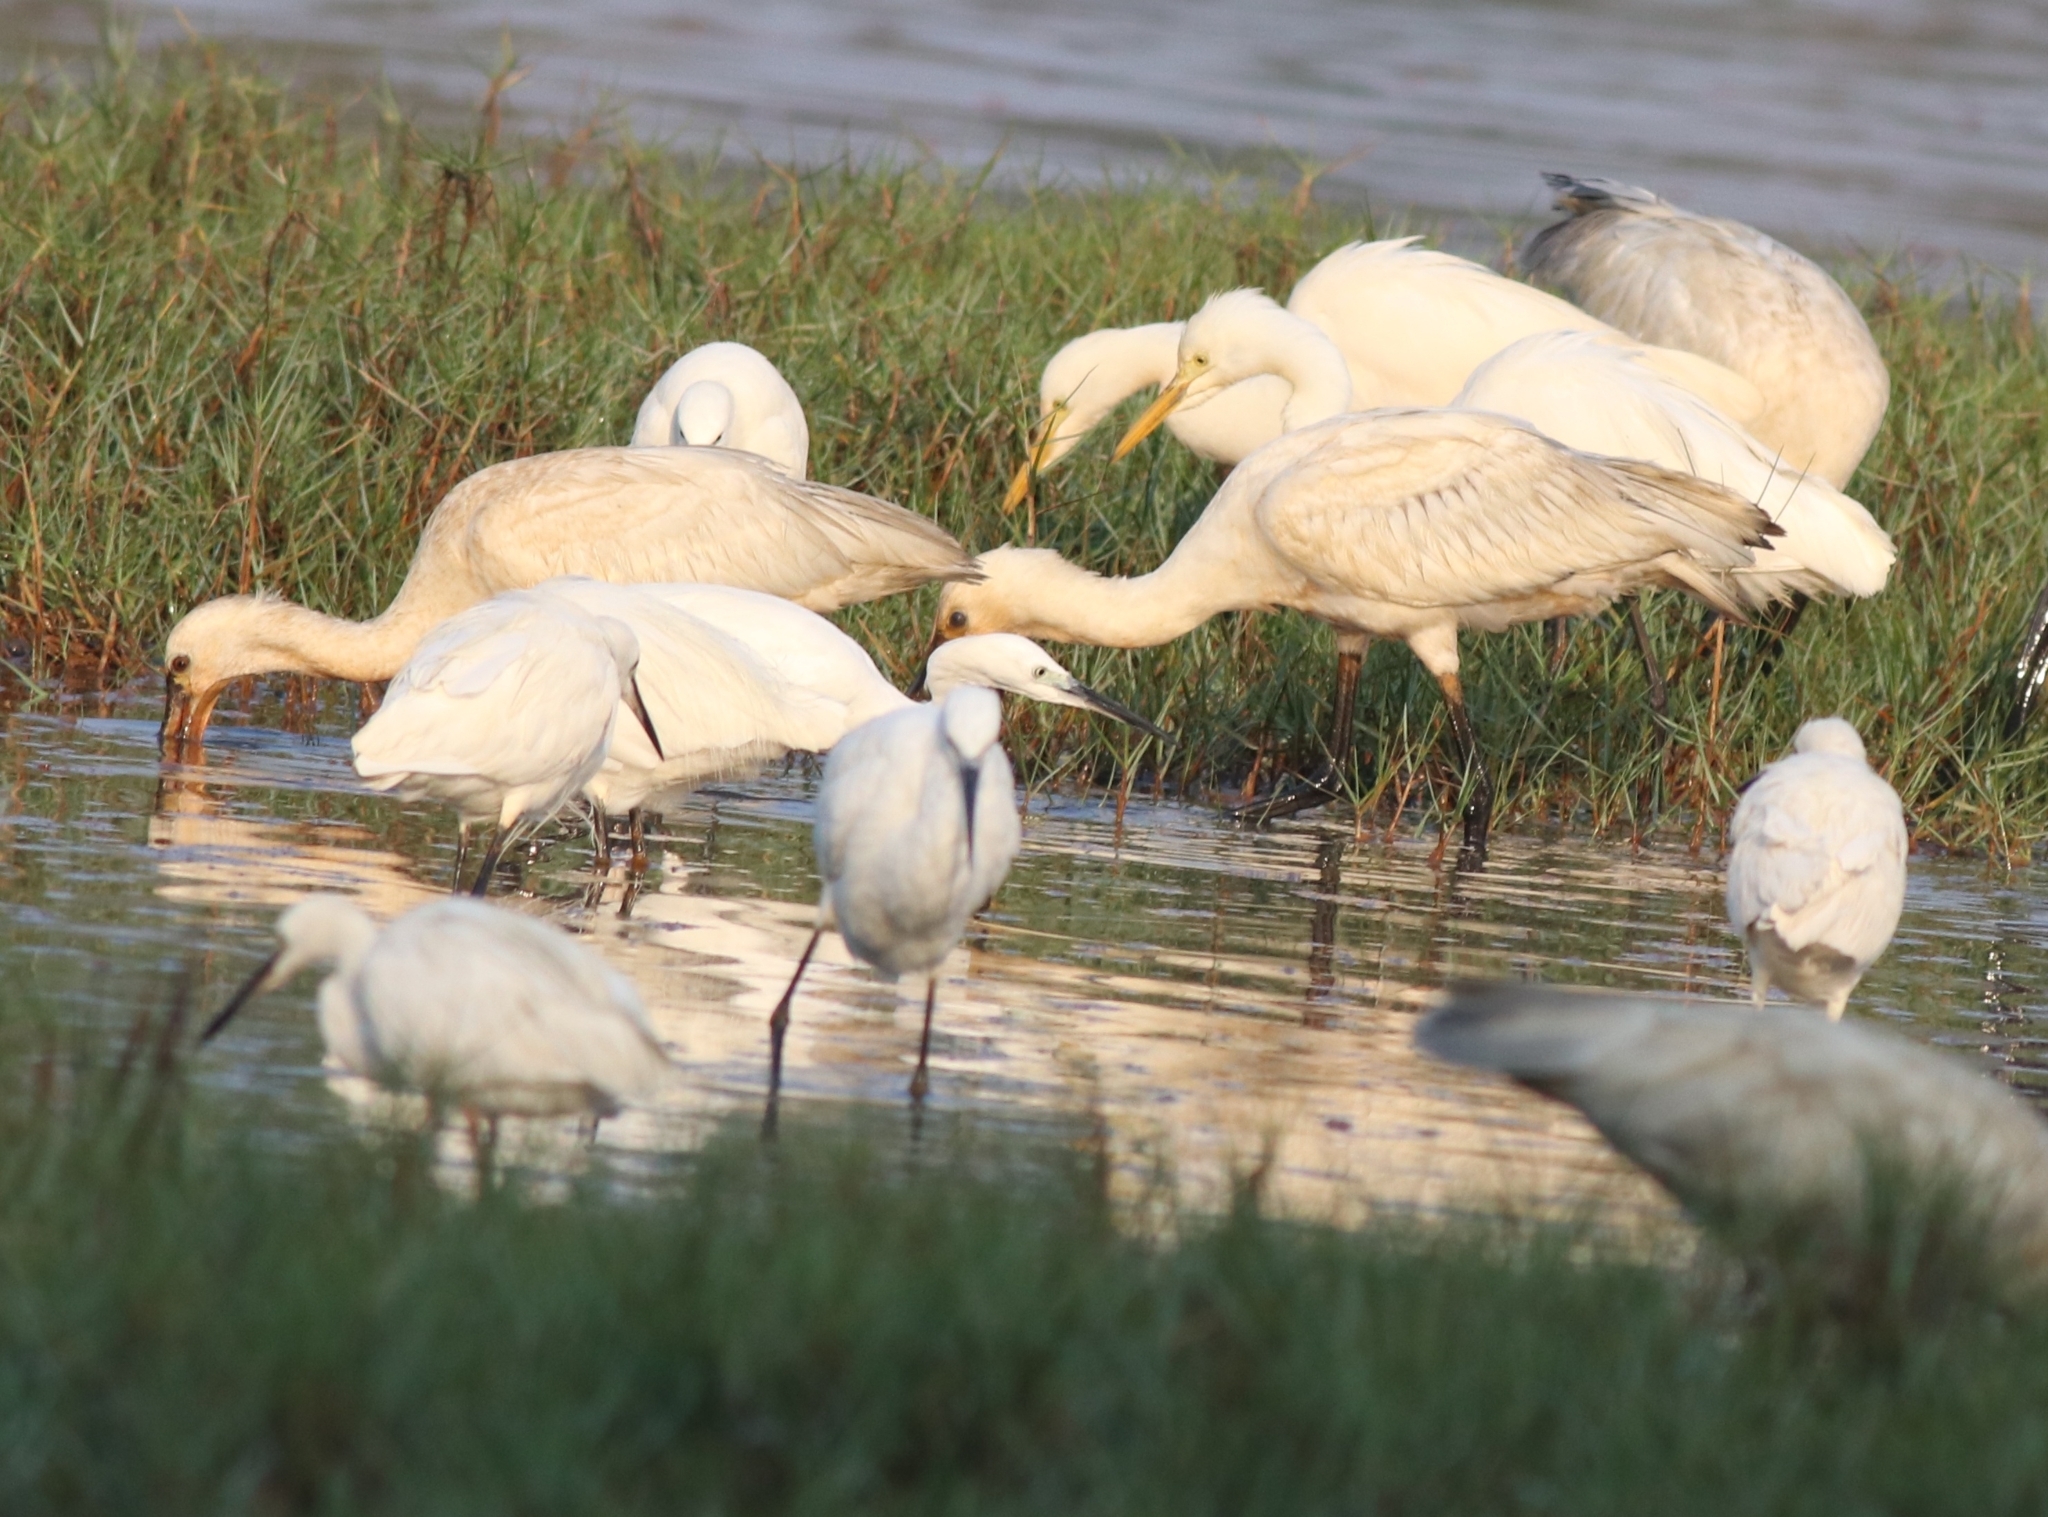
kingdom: Animalia
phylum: Chordata
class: Aves
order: Pelecaniformes
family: Ardeidae
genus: Egretta
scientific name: Egretta garzetta
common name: Little egret
